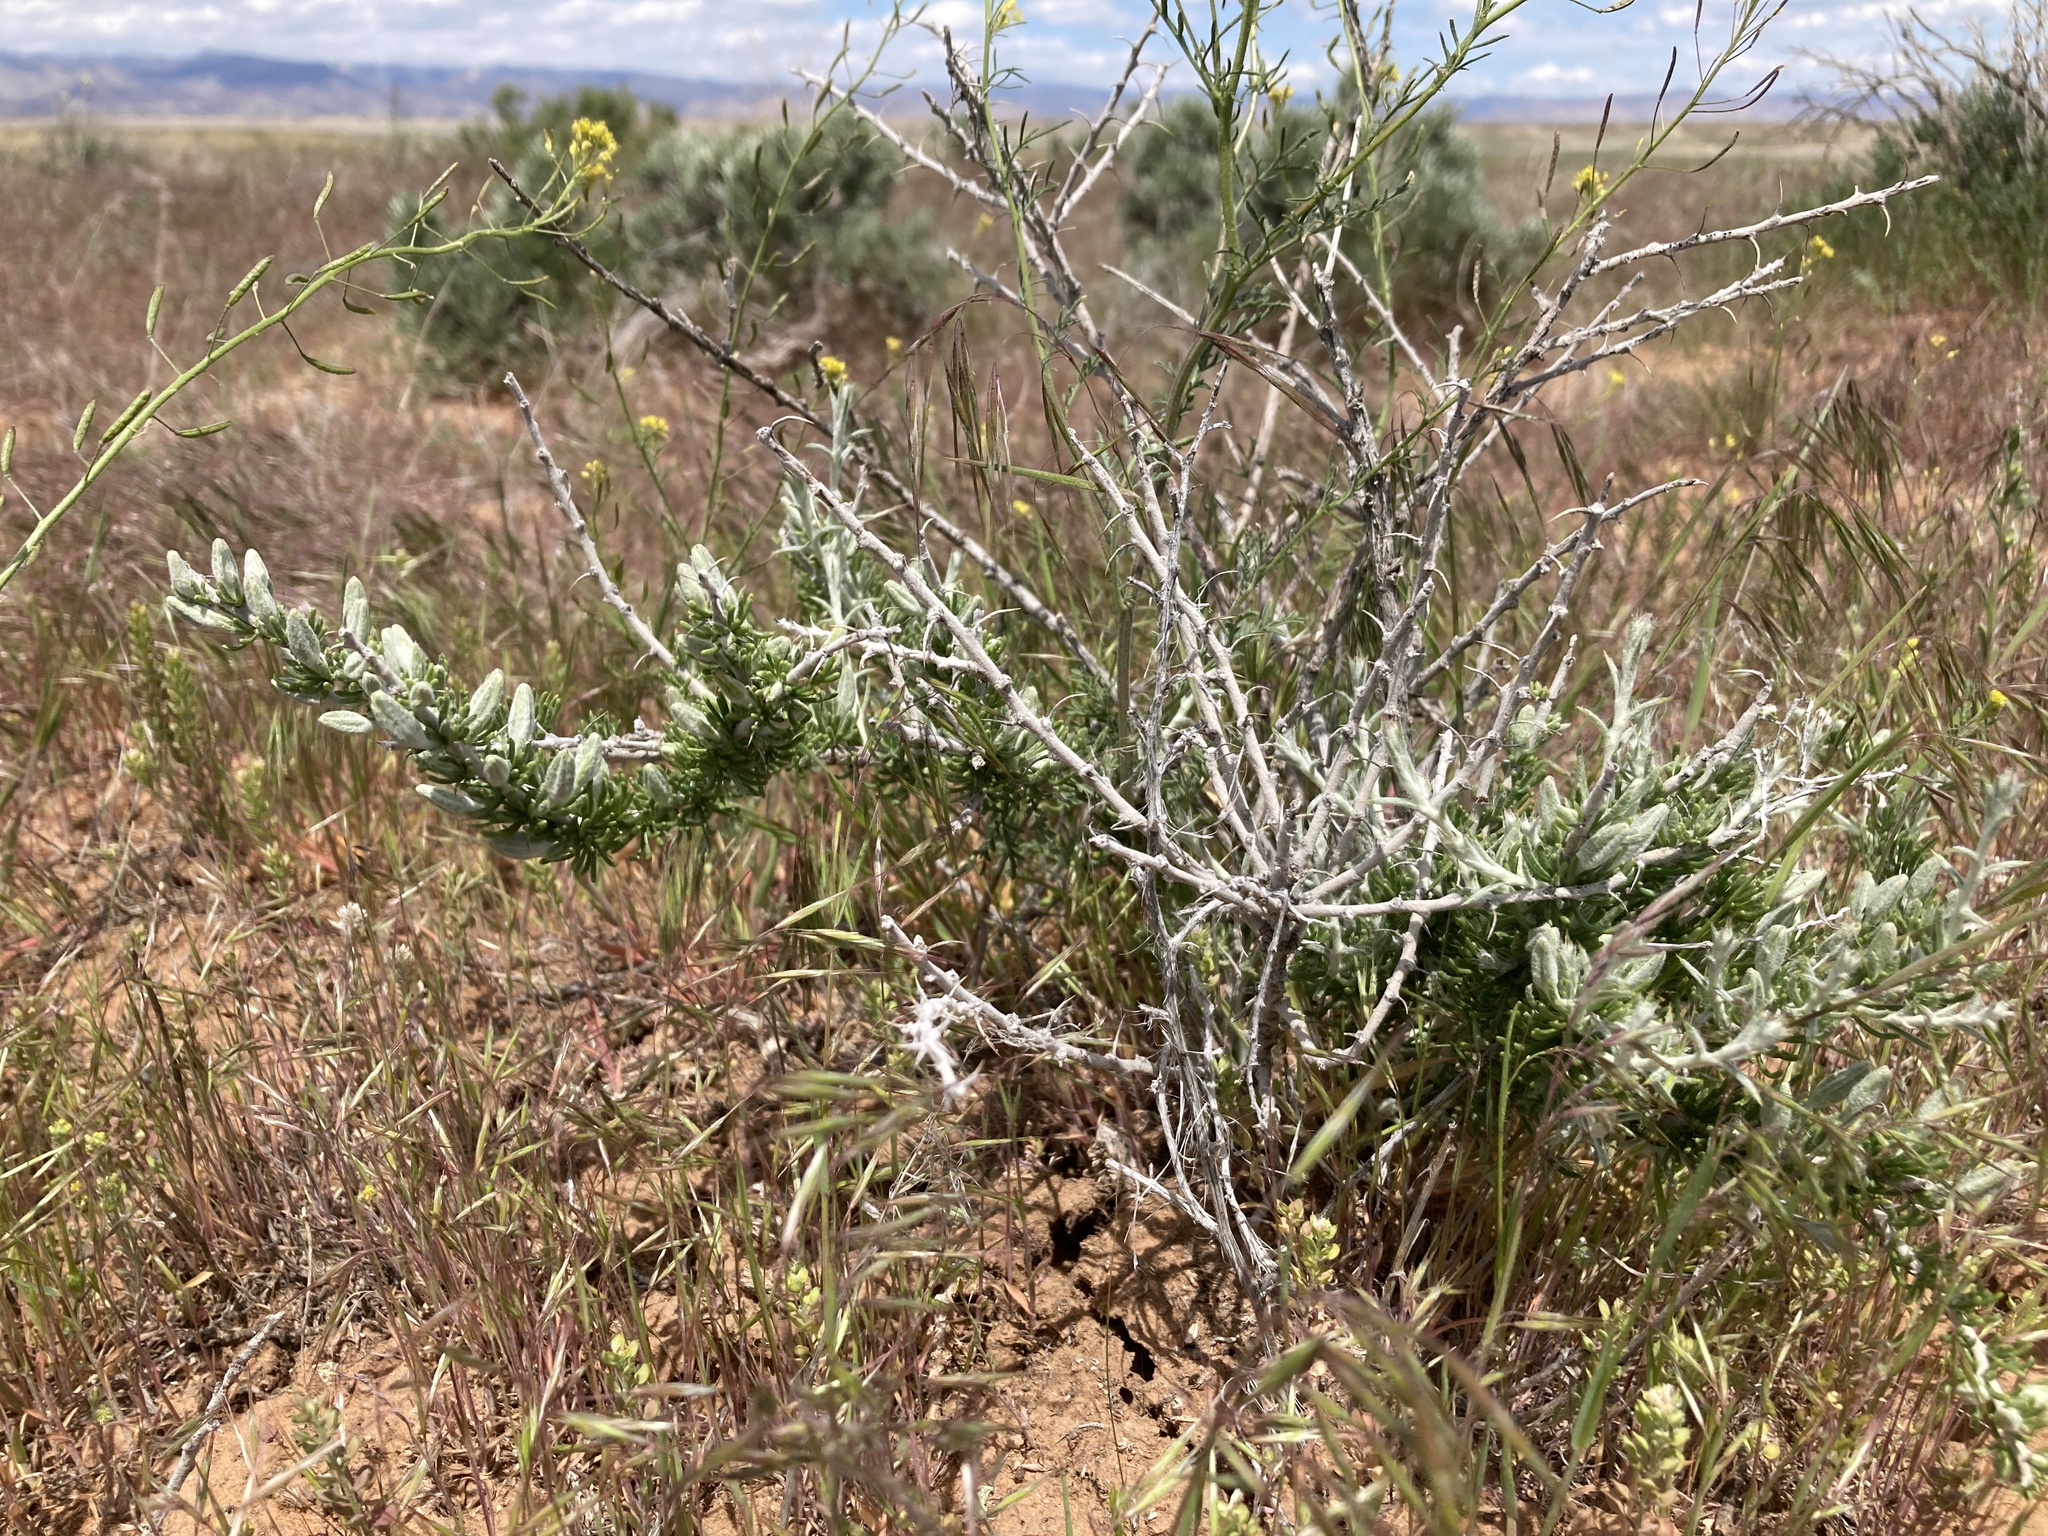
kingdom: Plantae
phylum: Tracheophyta
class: Magnoliopsida
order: Asterales
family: Asteraceae
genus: Tetradymia
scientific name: Tetradymia spinosa
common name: Thorny horsebrush
